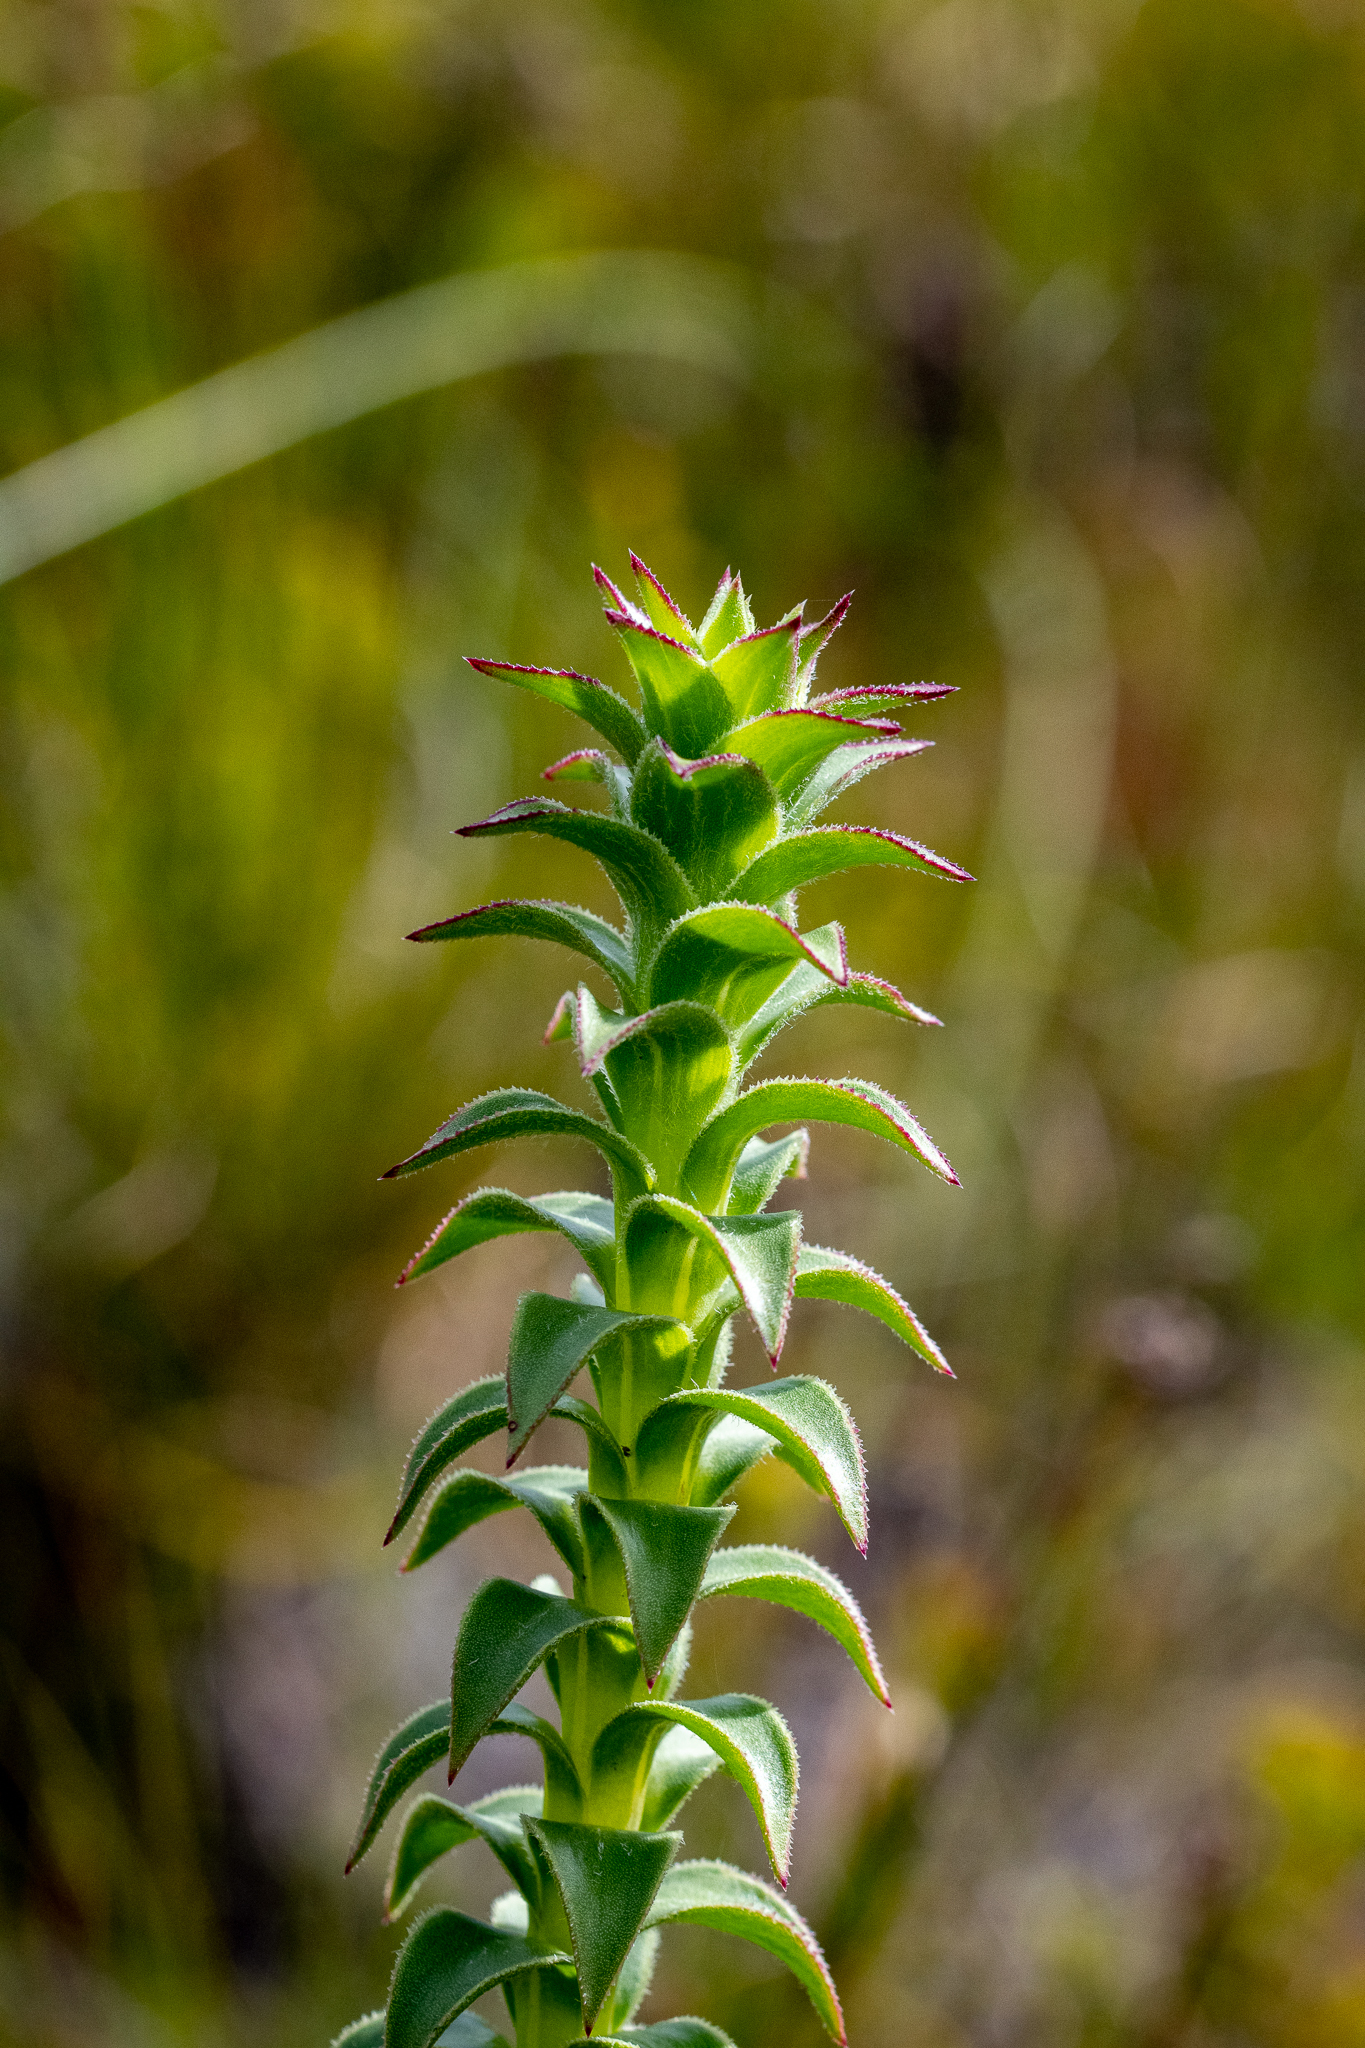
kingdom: Plantae
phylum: Tracheophyta
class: Magnoliopsida
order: Asterales
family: Asteraceae
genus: Oedera
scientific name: Oedera imbricata
